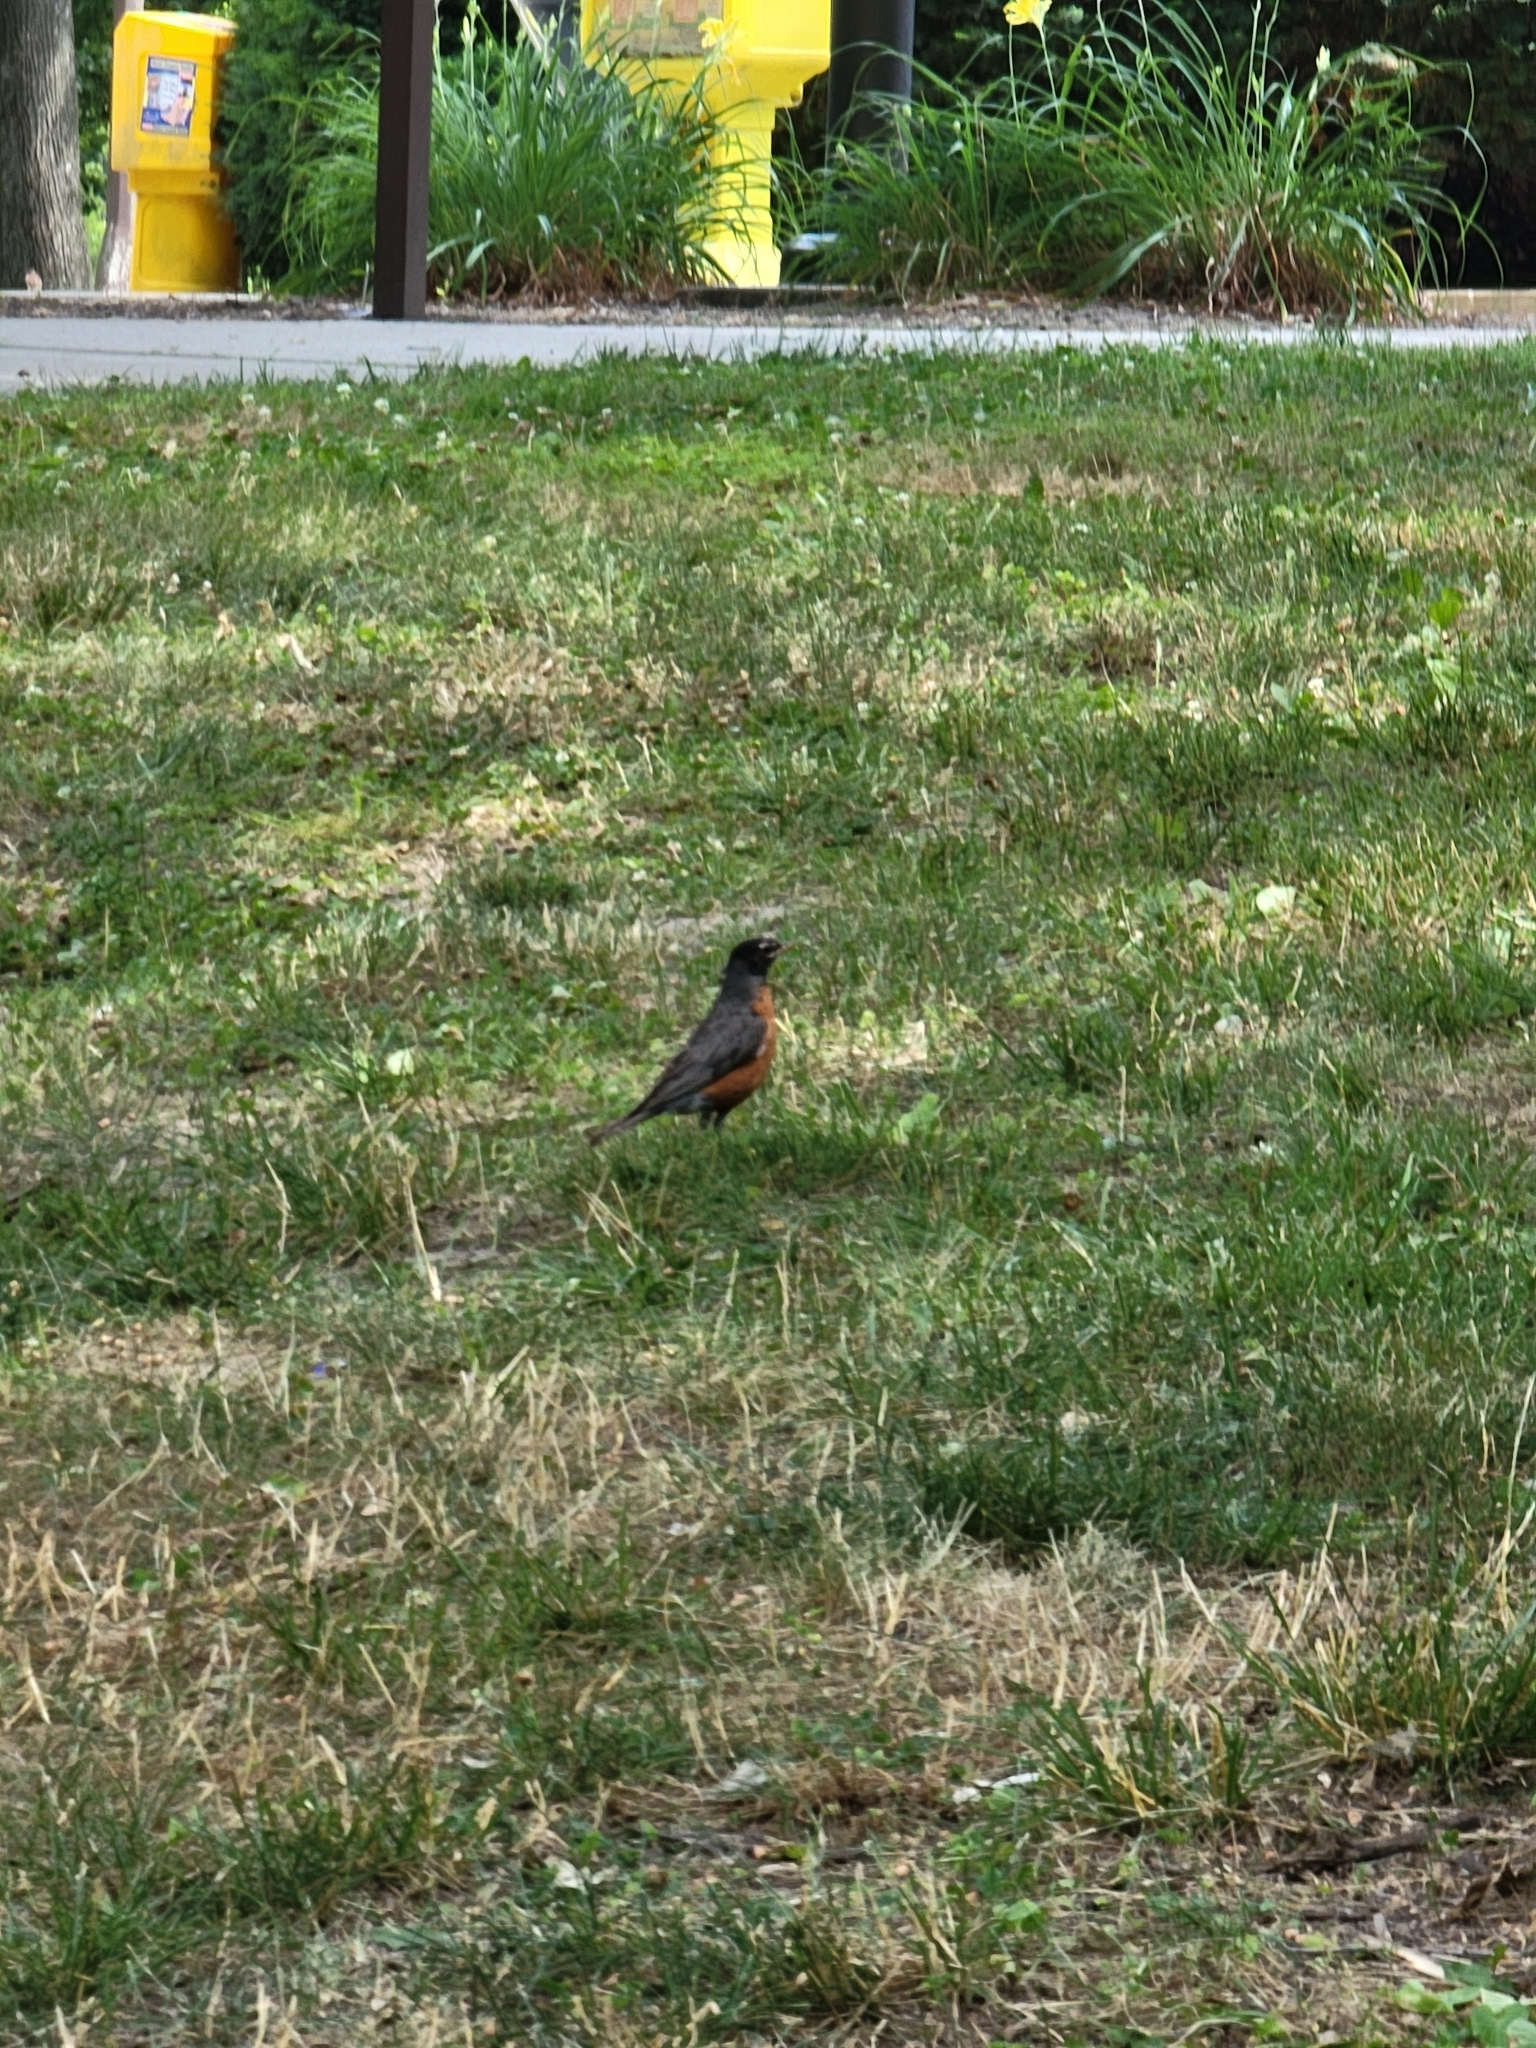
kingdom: Animalia
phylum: Chordata
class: Aves
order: Passeriformes
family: Turdidae
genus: Turdus
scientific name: Turdus migratorius
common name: American robin
